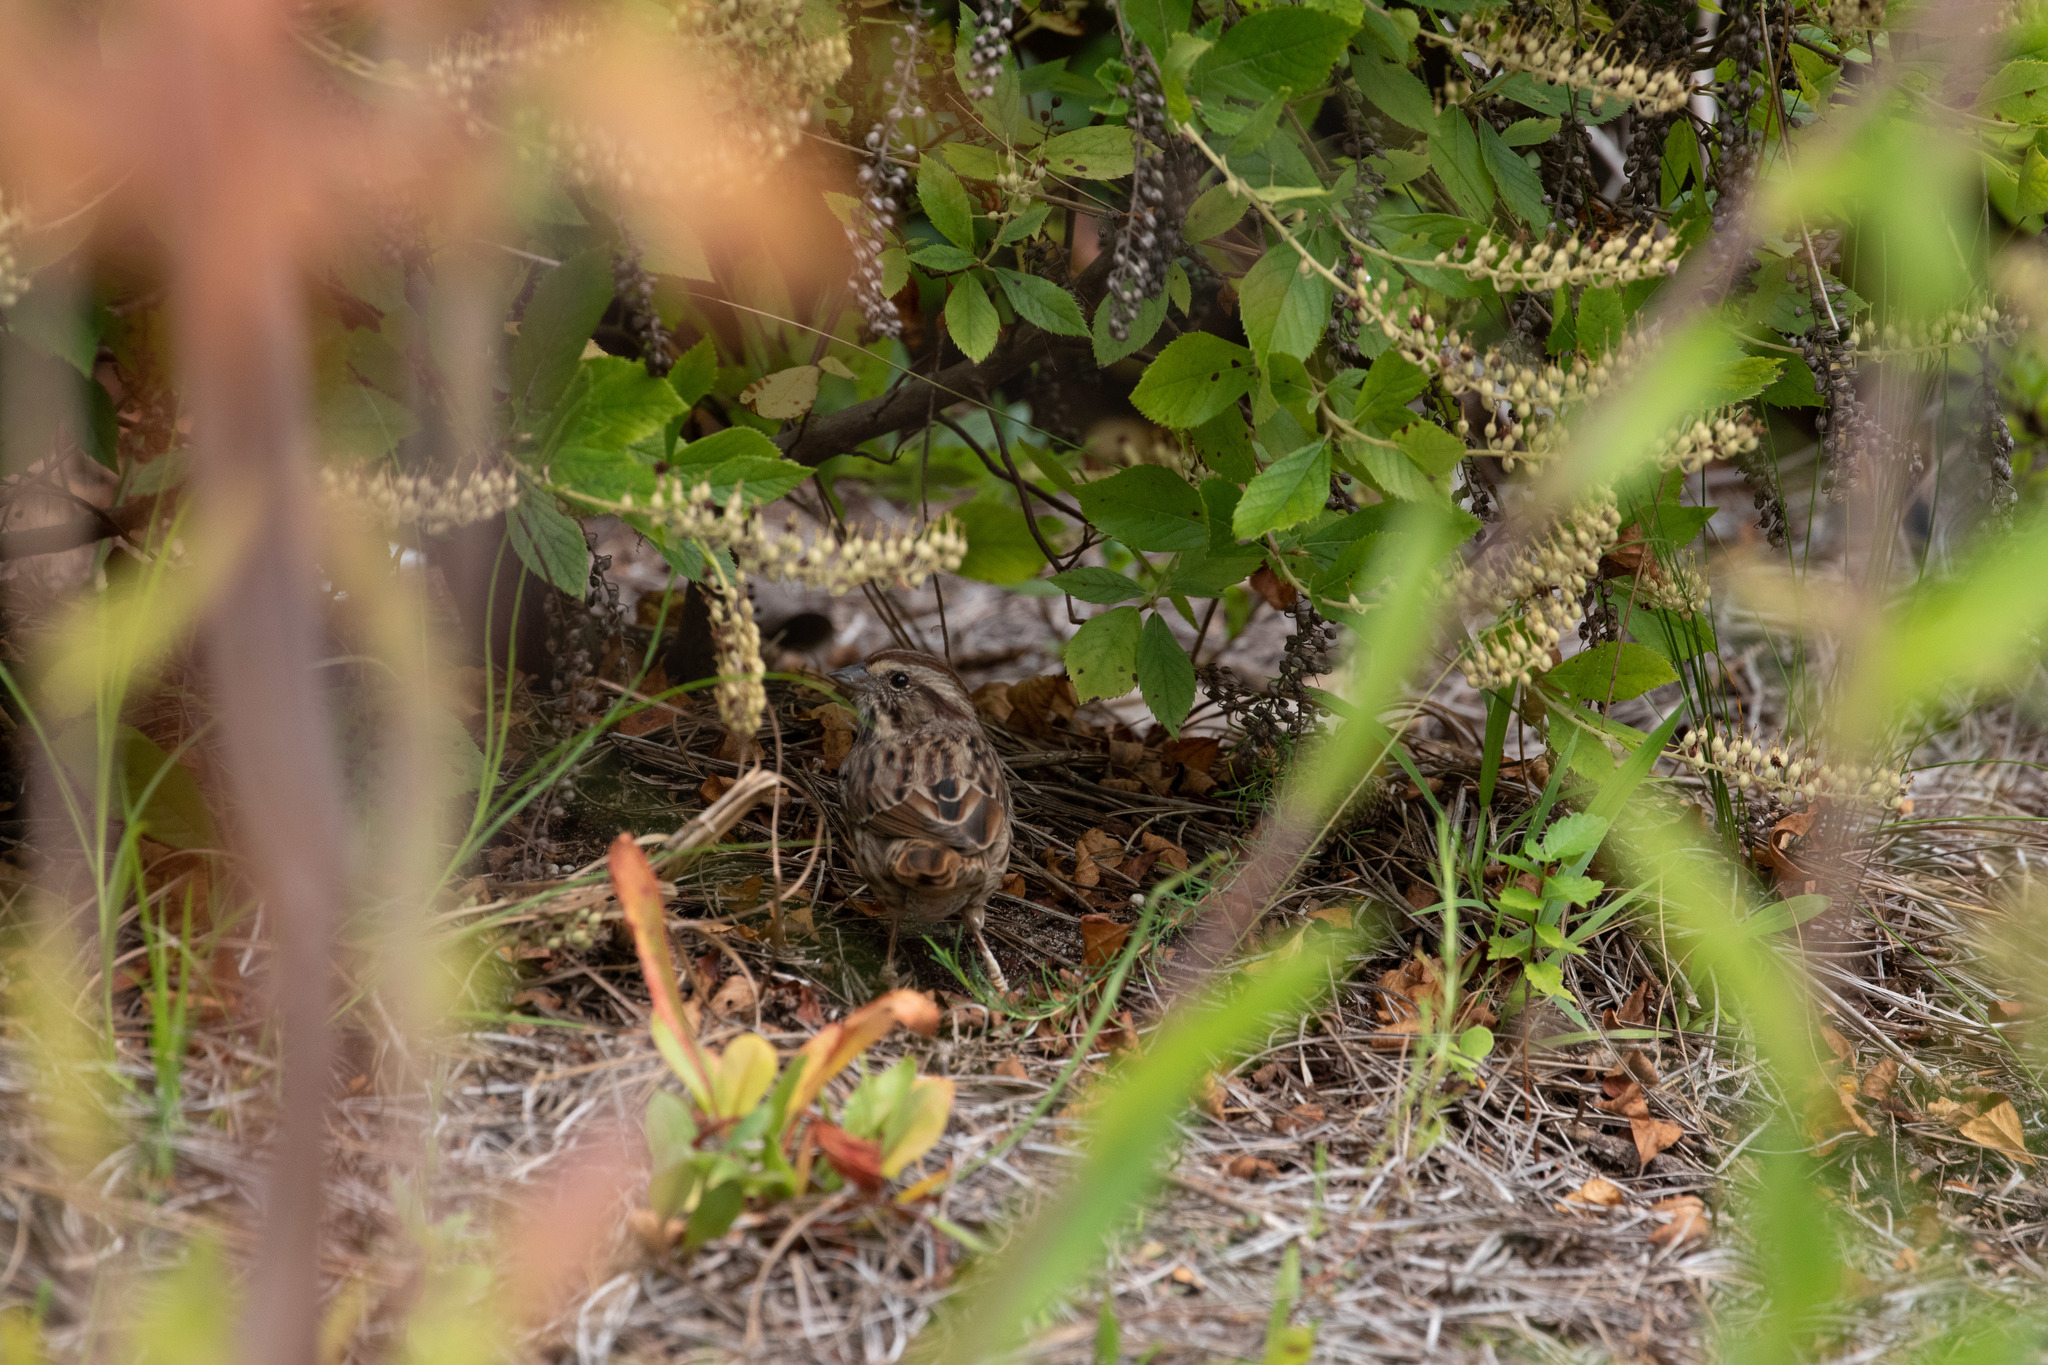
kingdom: Animalia
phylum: Chordata
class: Aves
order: Passeriformes
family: Passerellidae
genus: Melospiza
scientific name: Melospiza melodia
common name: Song sparrow
